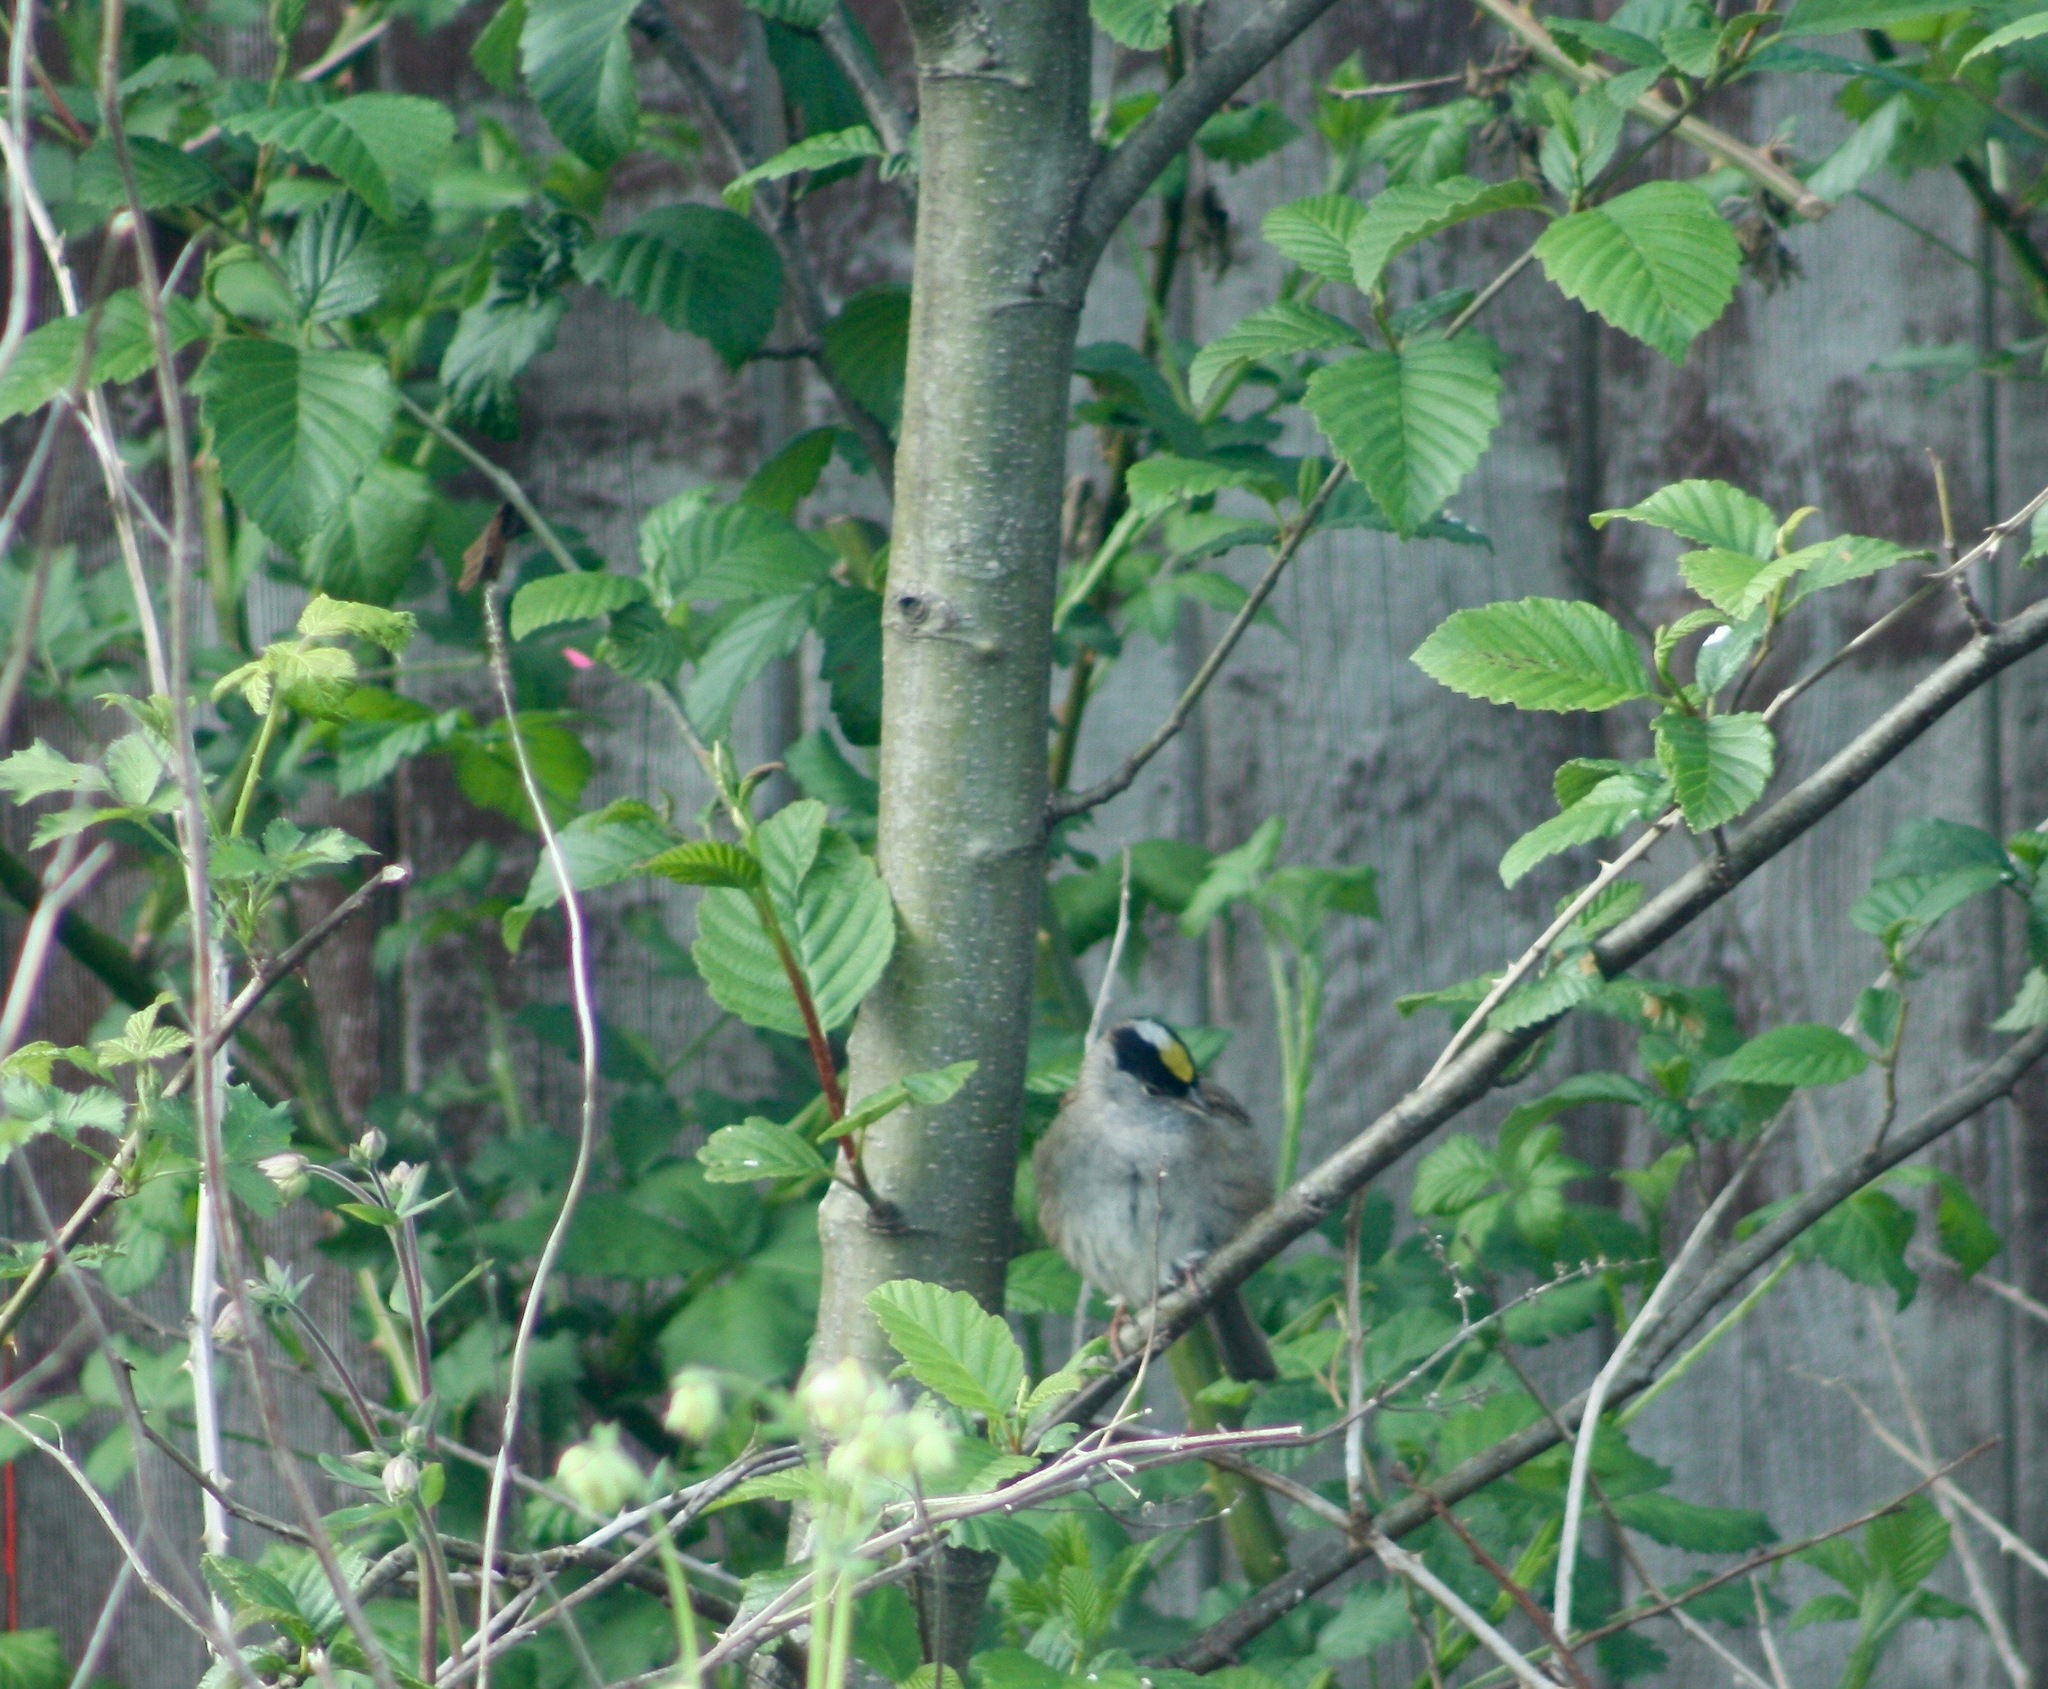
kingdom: Animalia
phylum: Chordata
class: Aves
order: Passeriformes
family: Passerellidae
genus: Zonotrichia
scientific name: Zonotrichia atricapilla
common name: Golden-crowned sparrow
